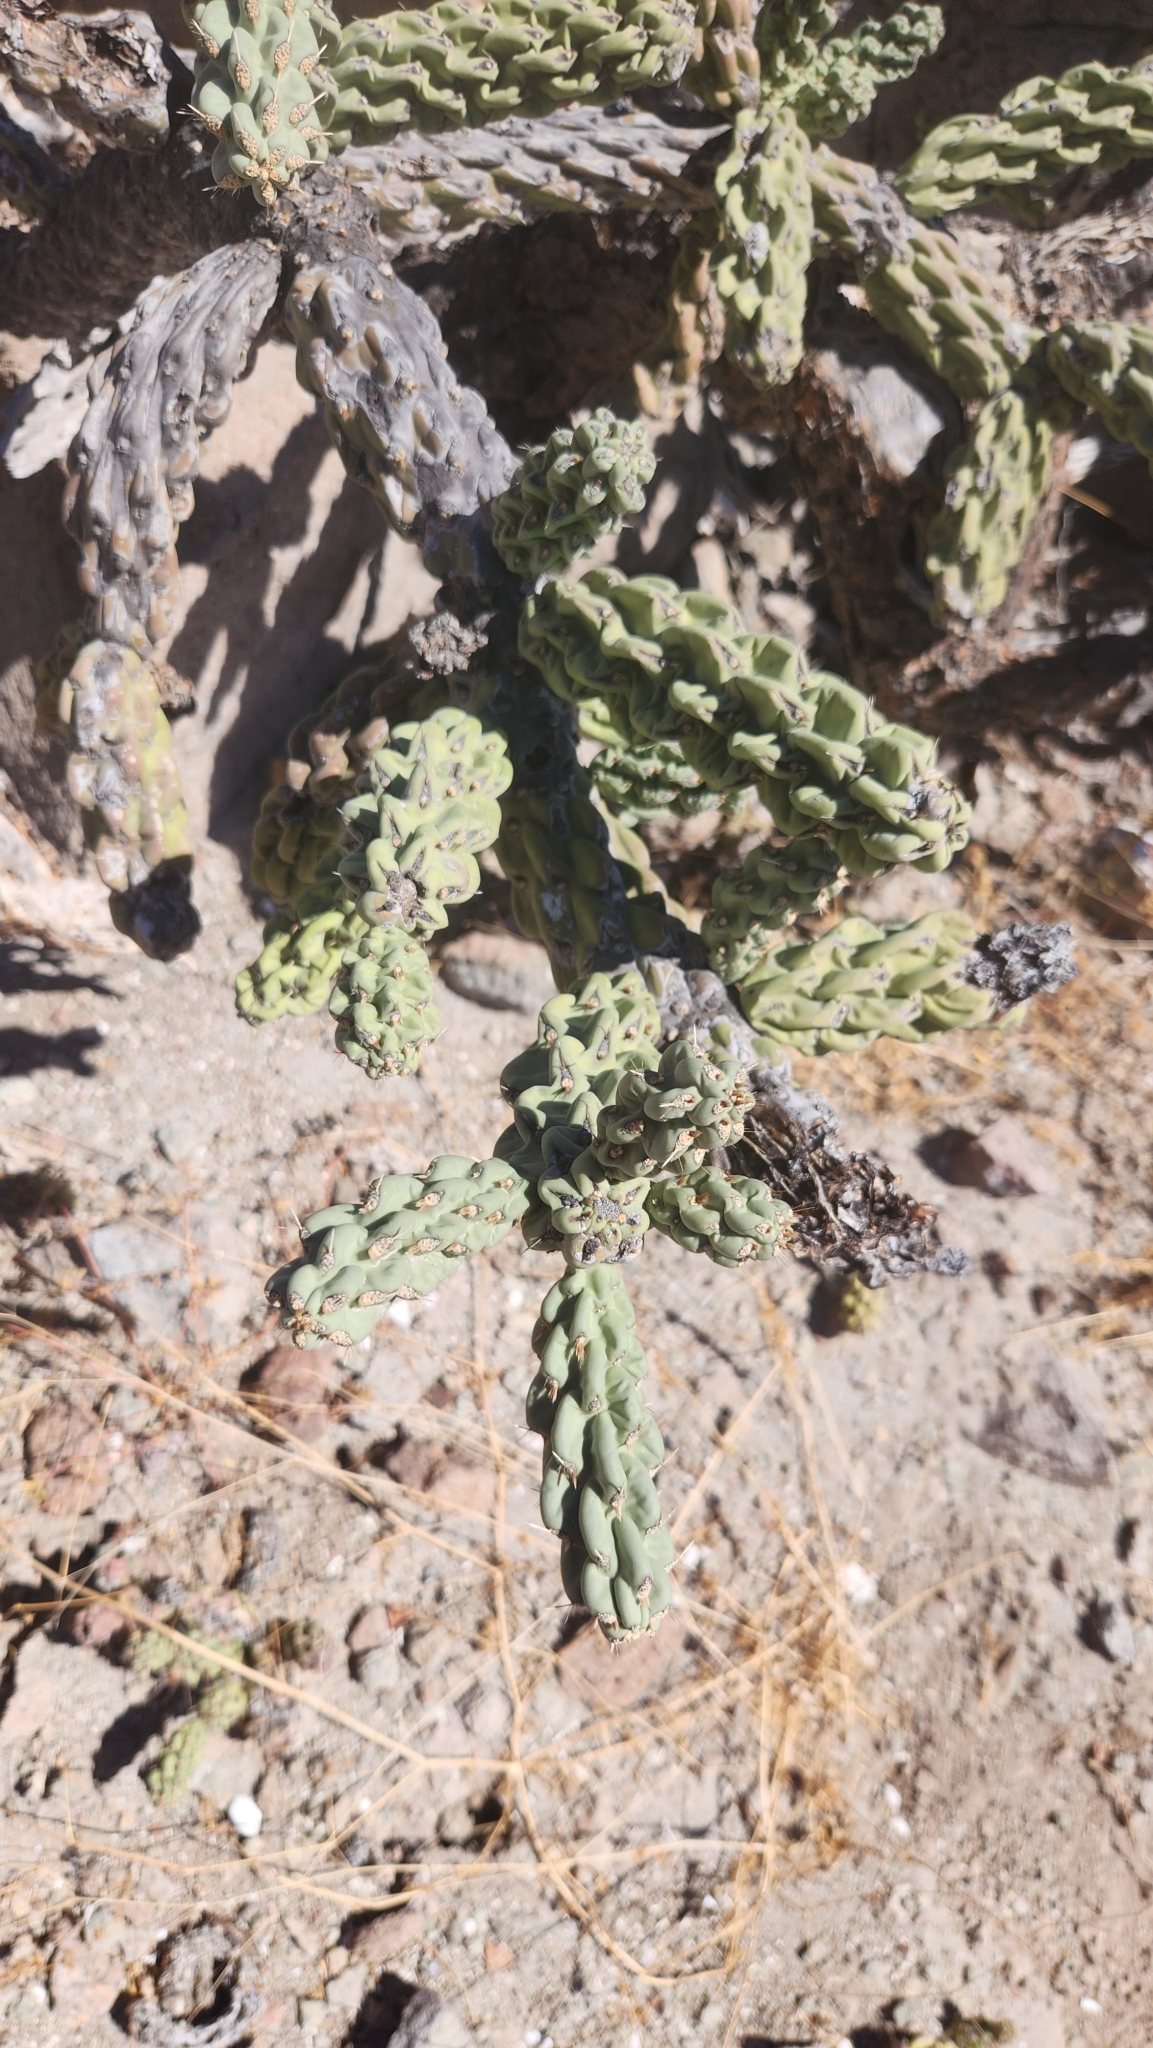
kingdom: Plantae
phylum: Tracheophyta
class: Magnoliopsida
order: Caryophyllales
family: Cactaceae
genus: Cylindropuntia
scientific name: Cylindropuntia cholla
